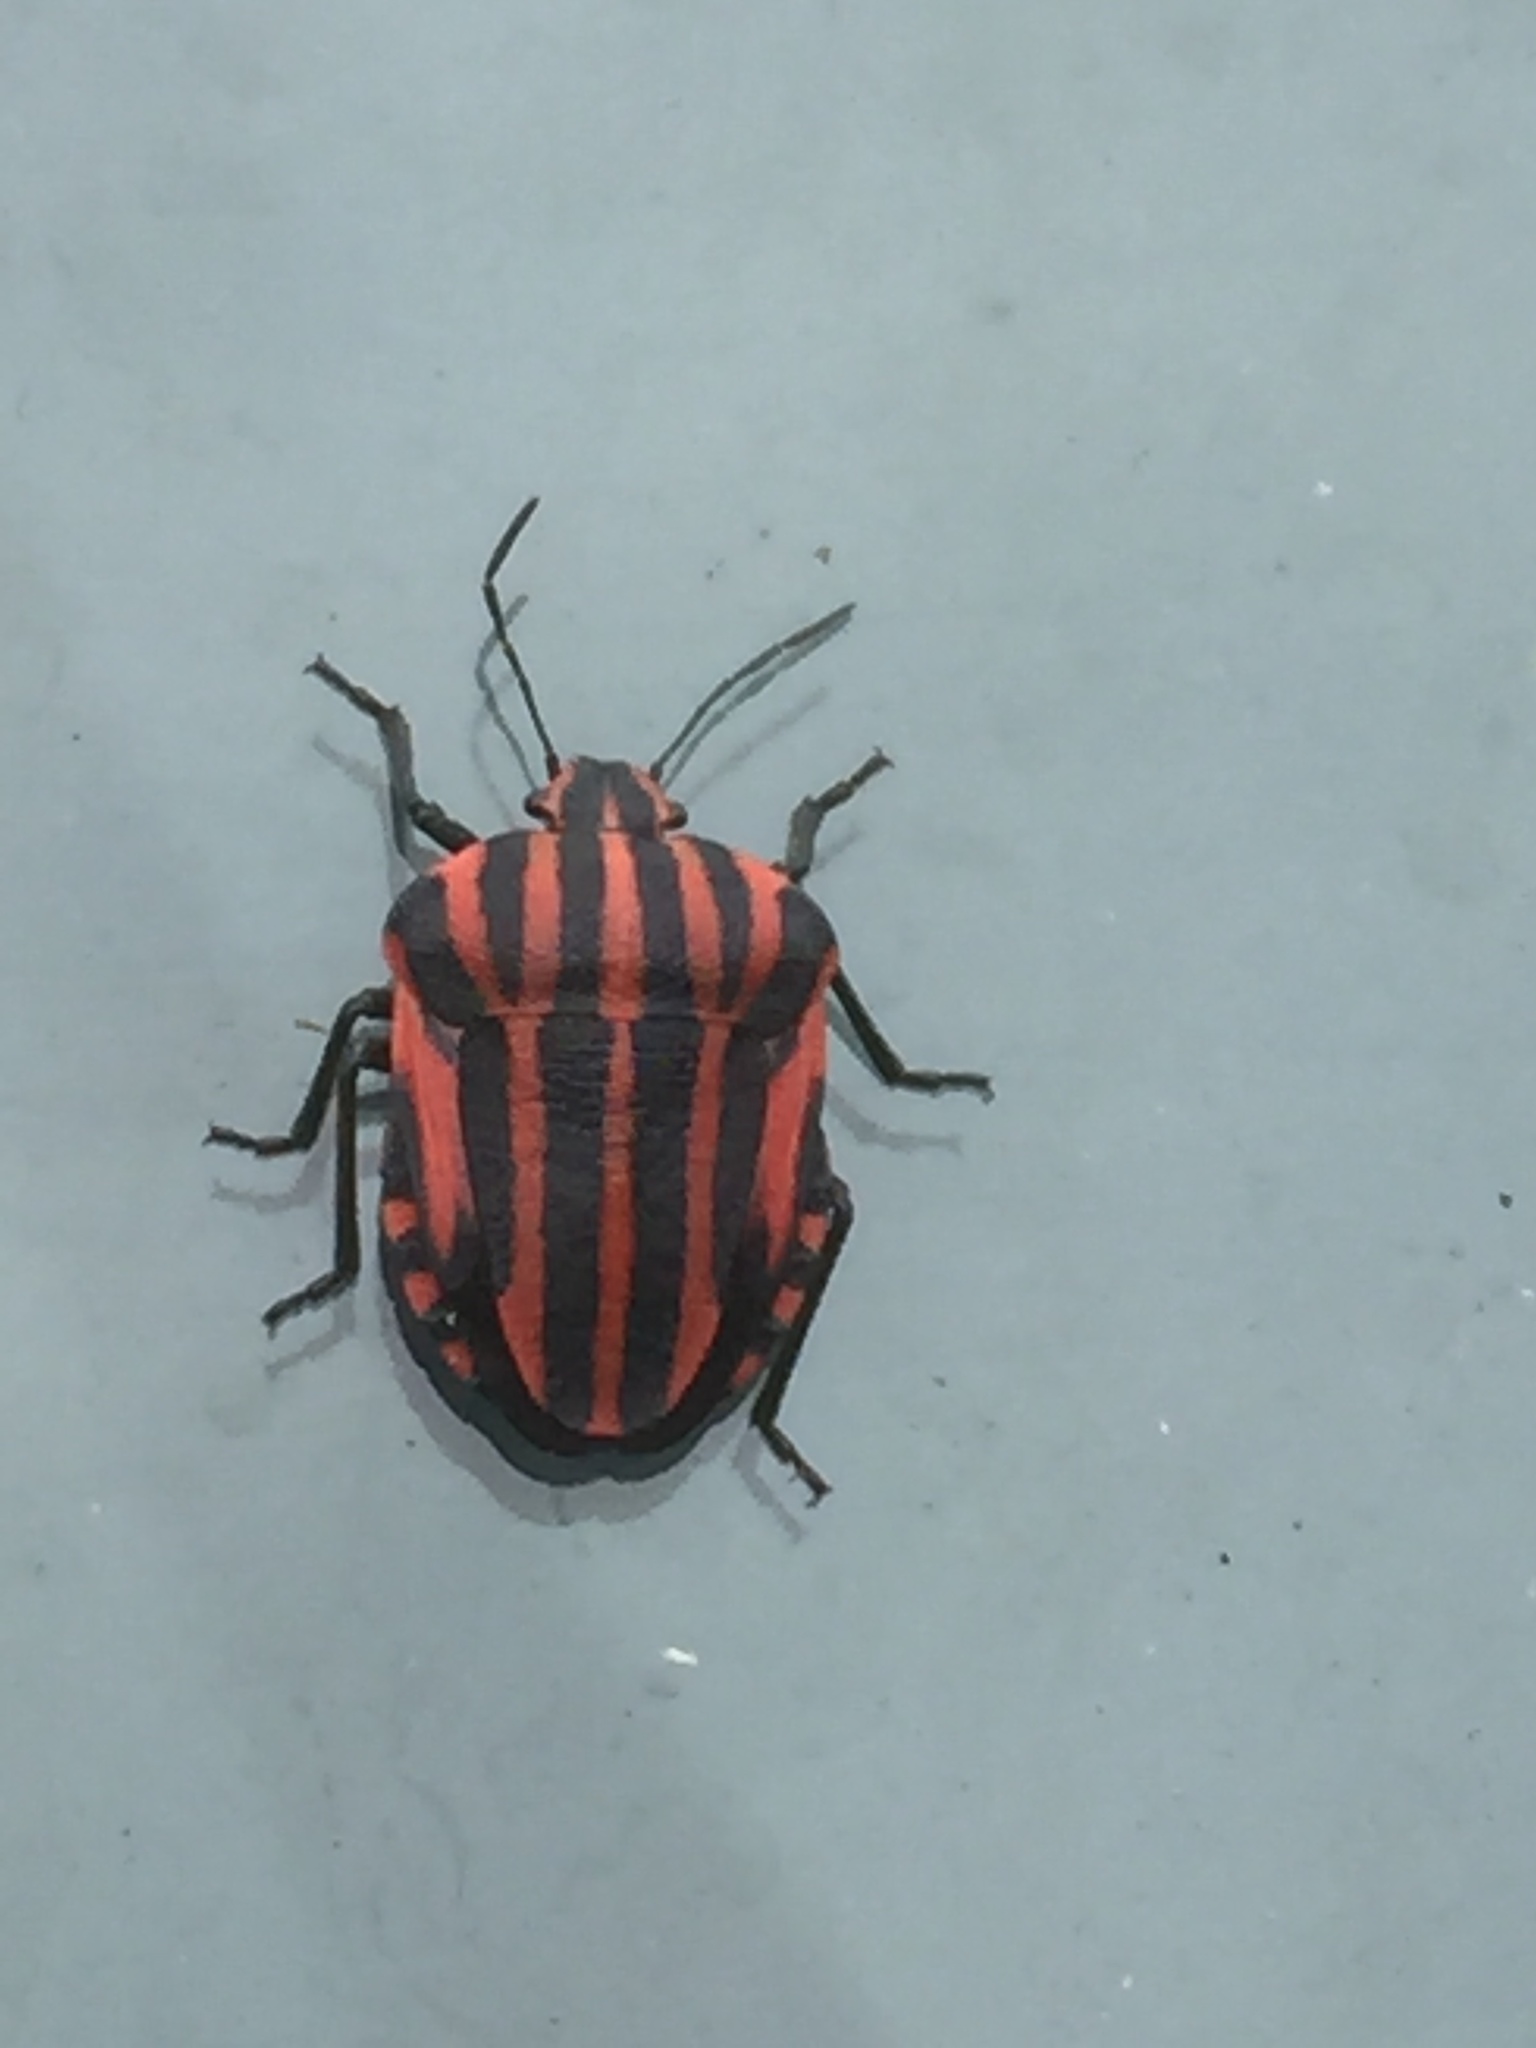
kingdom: Animalia
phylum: Arthropoda
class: Insecta
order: Hemiptera
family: Pentatomidae
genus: Graphosoma
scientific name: Graphosoma italicum
